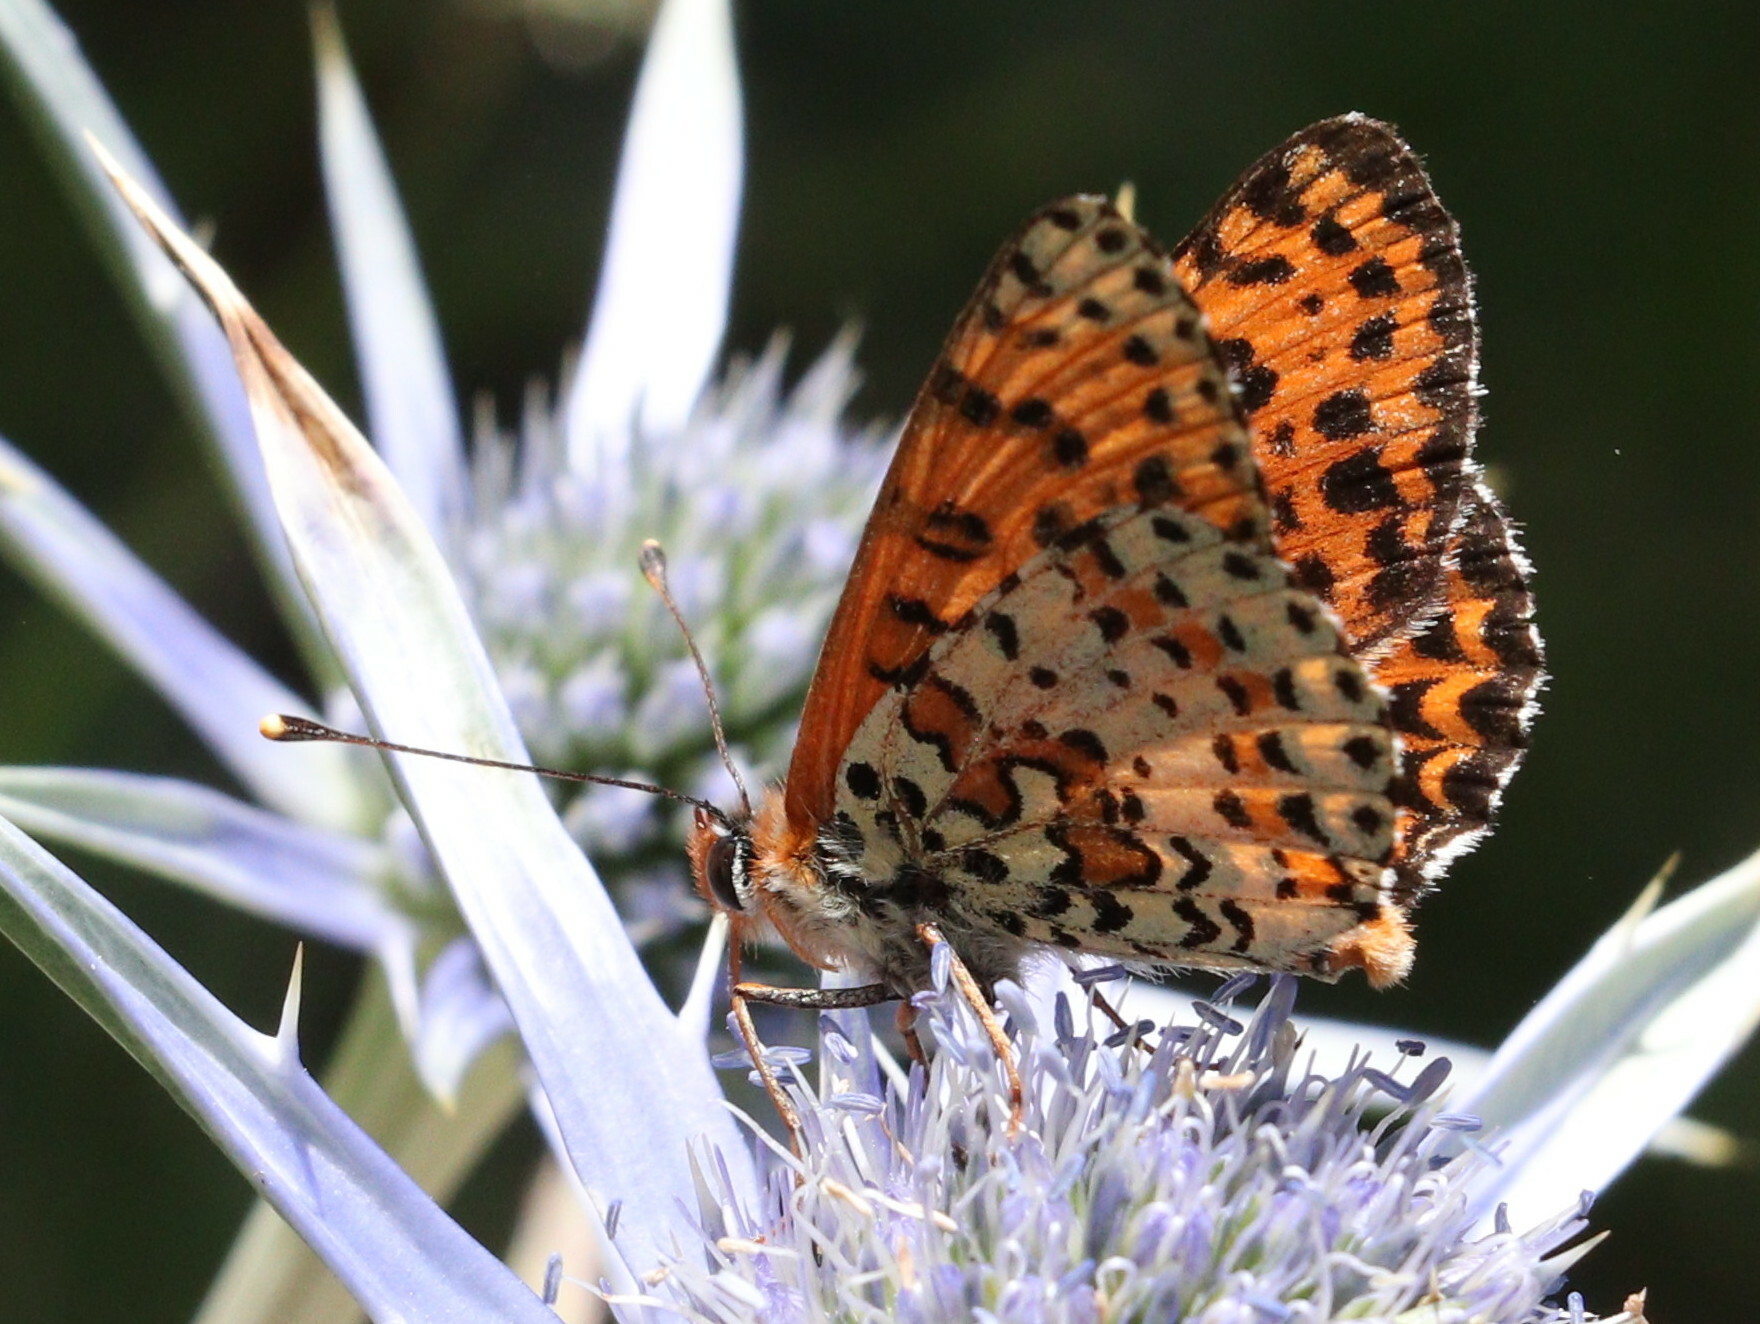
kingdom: Animalia
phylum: Arthropoda
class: Insecta
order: Lepidoptera
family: Nymphalidae
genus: Melitaea
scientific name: Melitaea didyma
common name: Spotted fritillary
